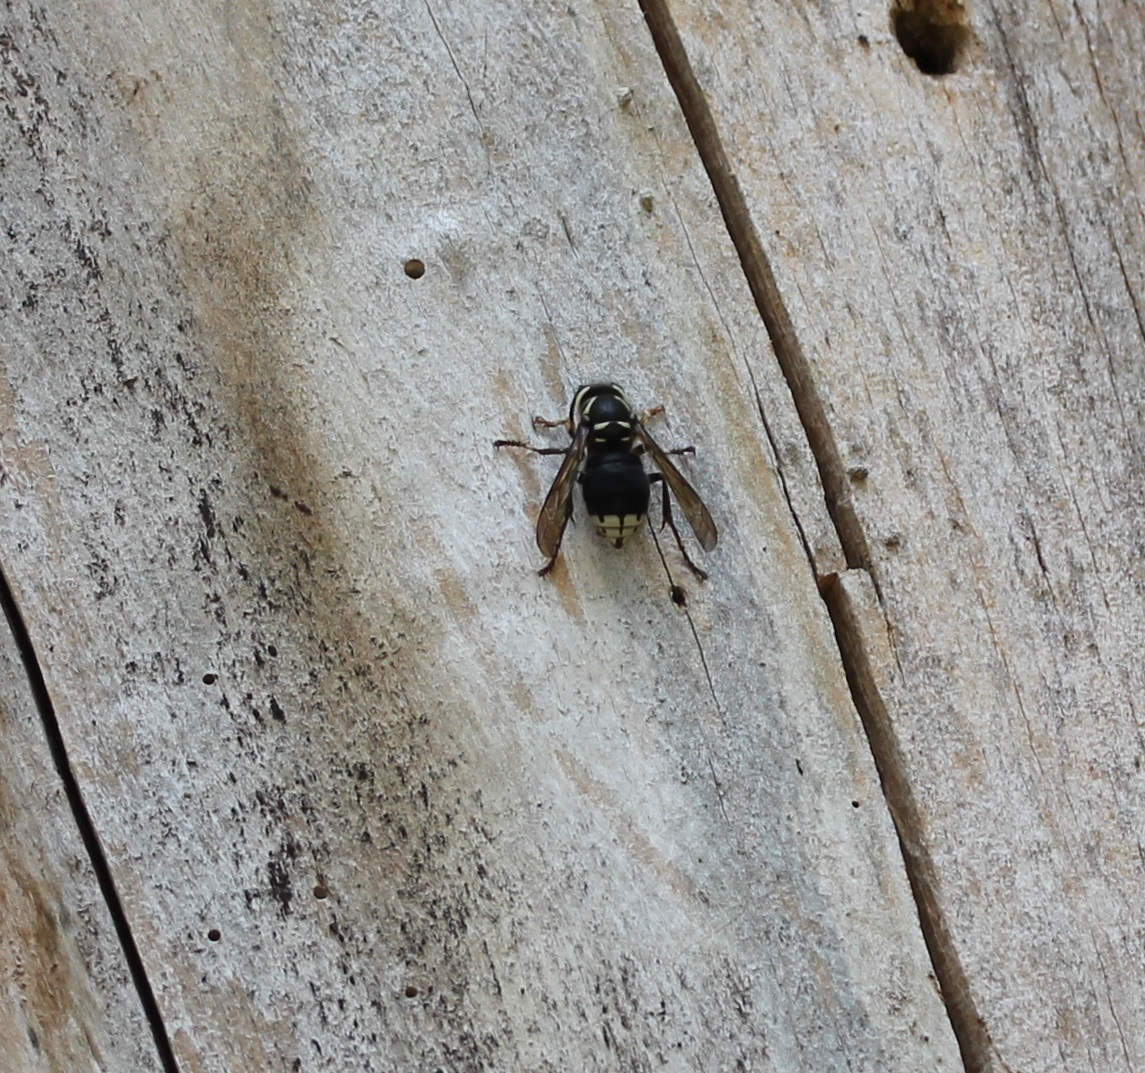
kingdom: Animalia
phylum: Arthropoda
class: Insecta
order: Hymenoptera
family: Vespidae
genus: Dolichovespula
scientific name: Dolichovespula maculata
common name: Bald-faced hornet
